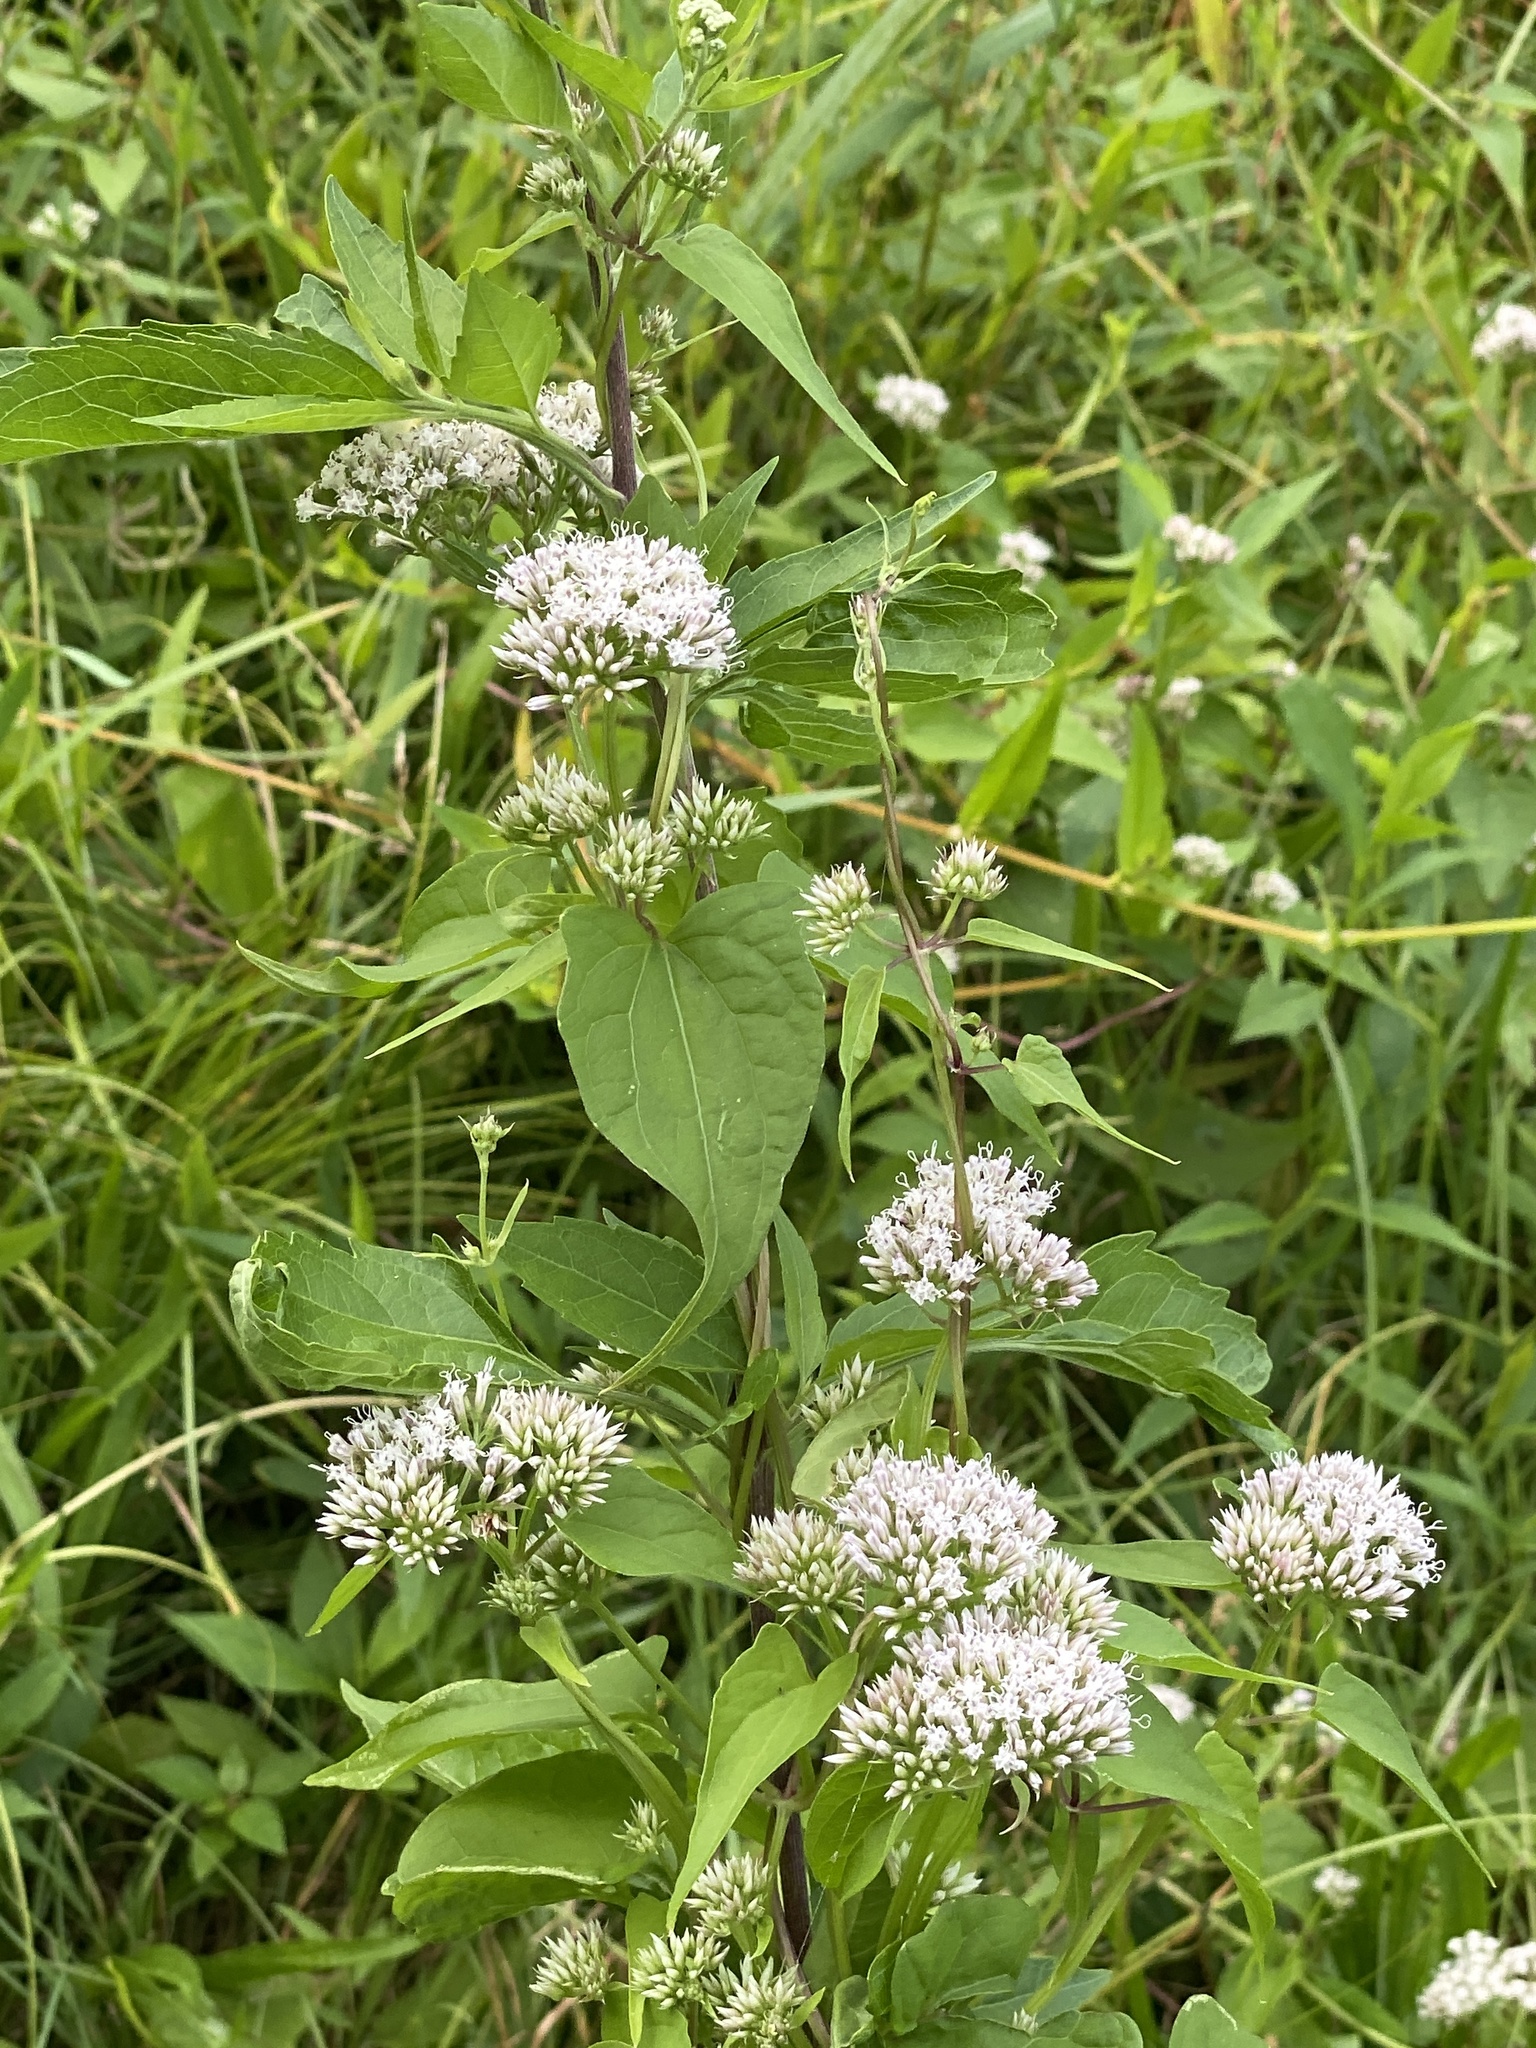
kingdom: Plantae
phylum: Tracheophyta
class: Magnoliopsida
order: Asterales
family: Asteraceae
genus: Mikania
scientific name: Mikania scandens
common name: Climbing hempvine
